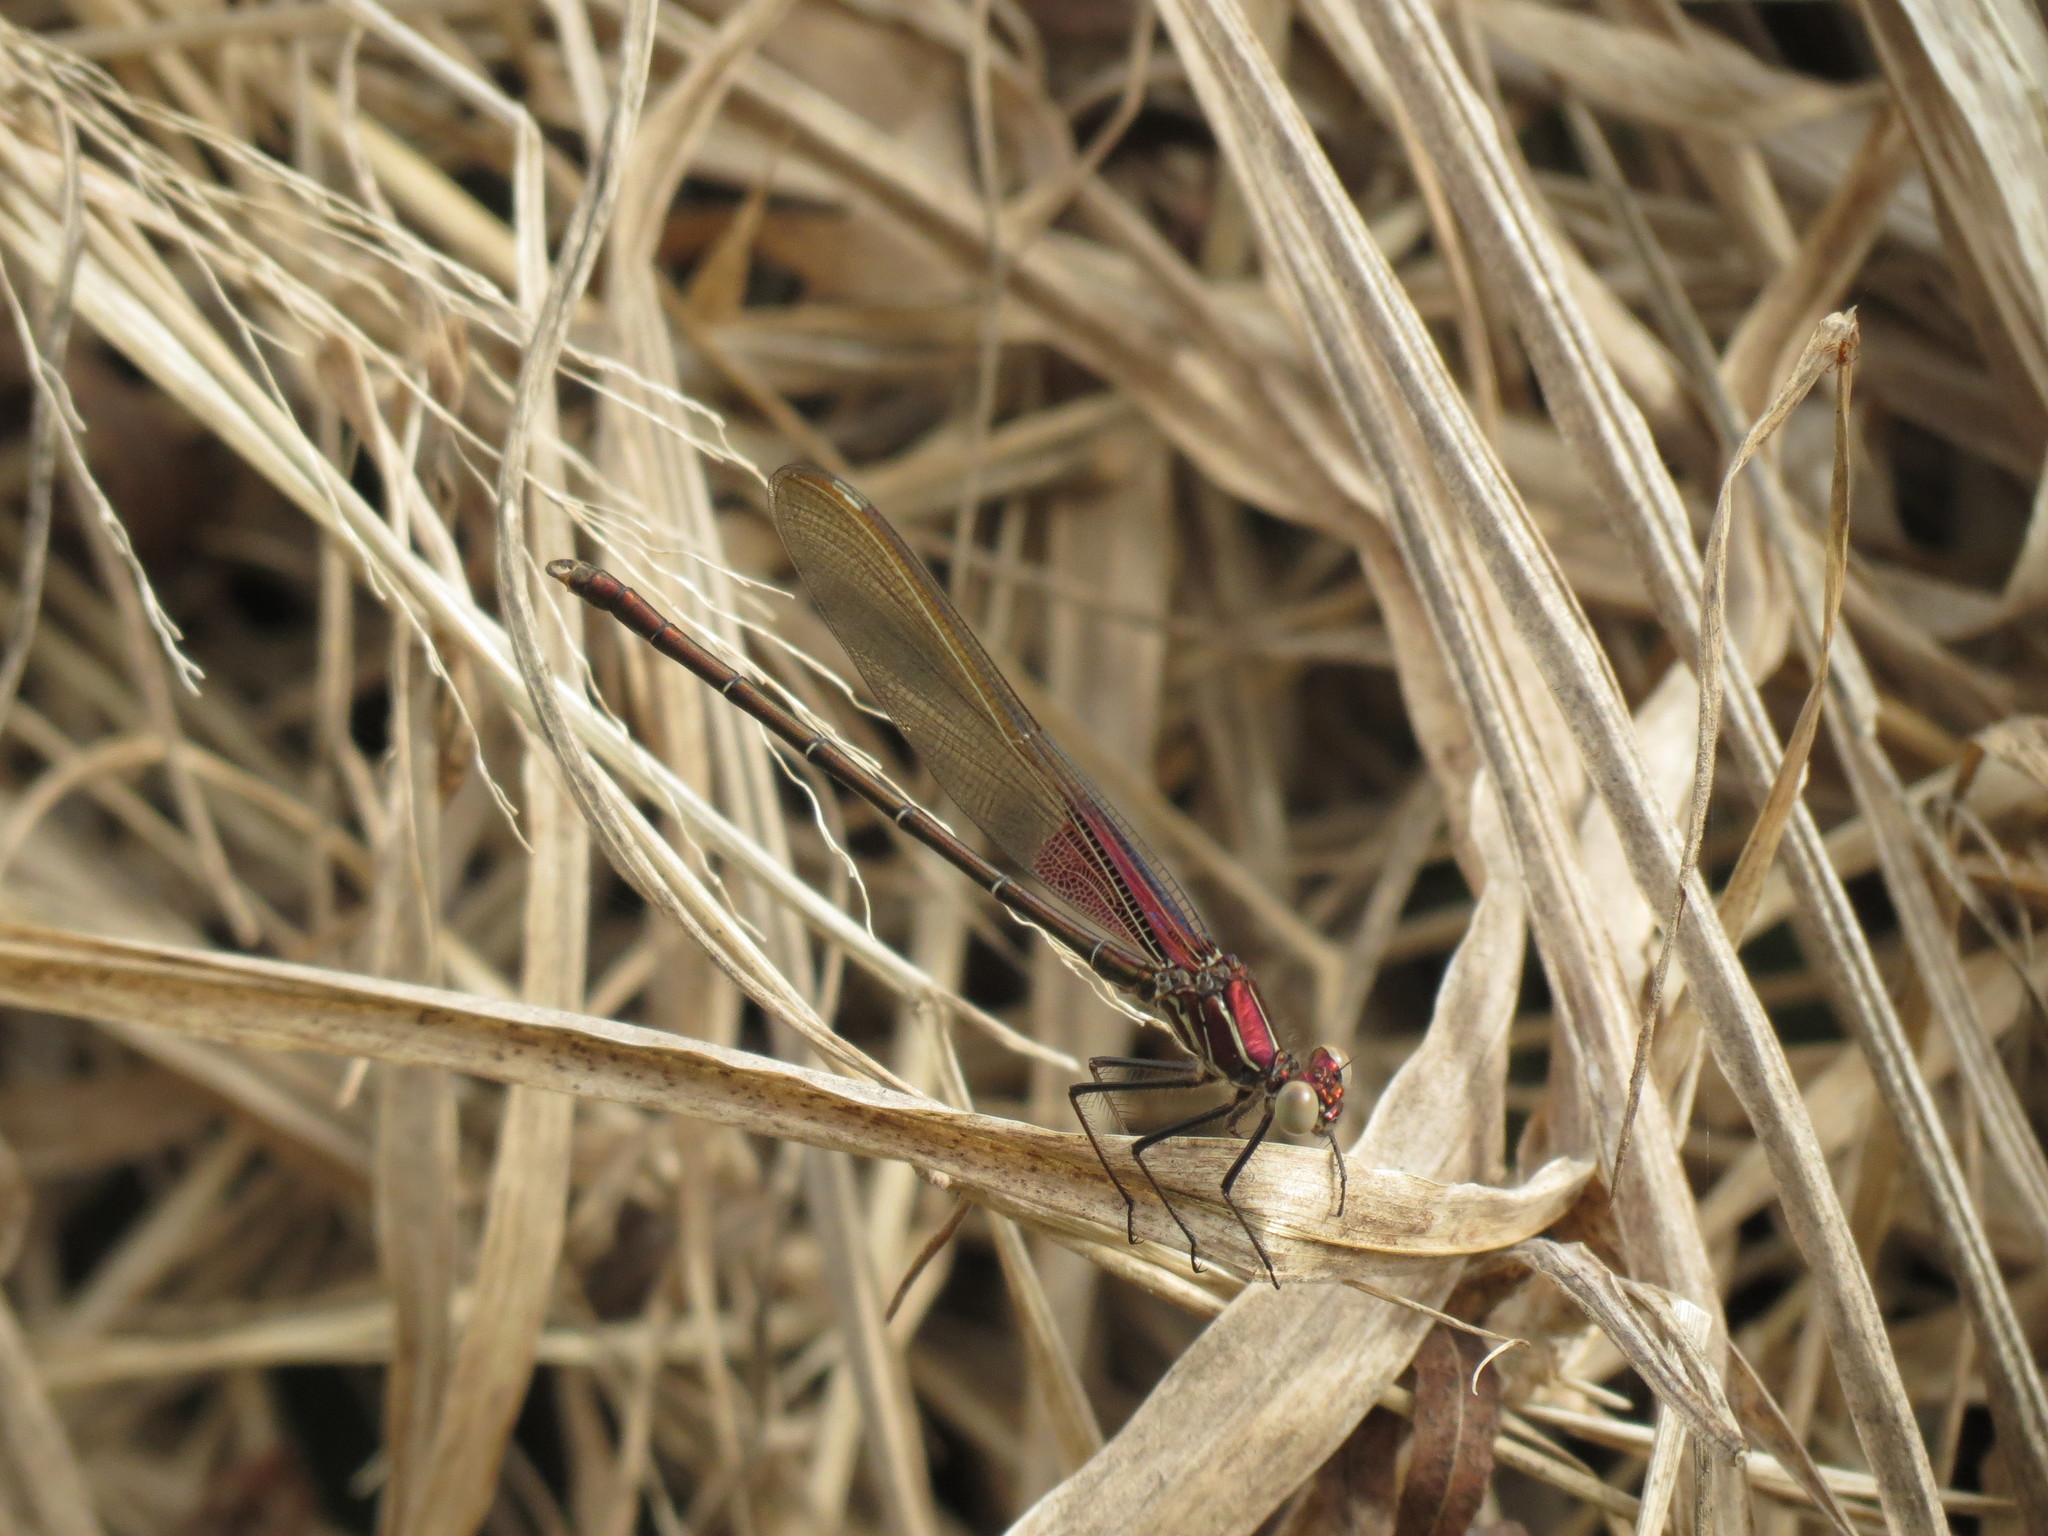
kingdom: Animalia
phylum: Arthropoda
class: Insecta
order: Odonata
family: Calopterygidae
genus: Hetaerina
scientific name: Hetaerina americana
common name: American rubyspot
